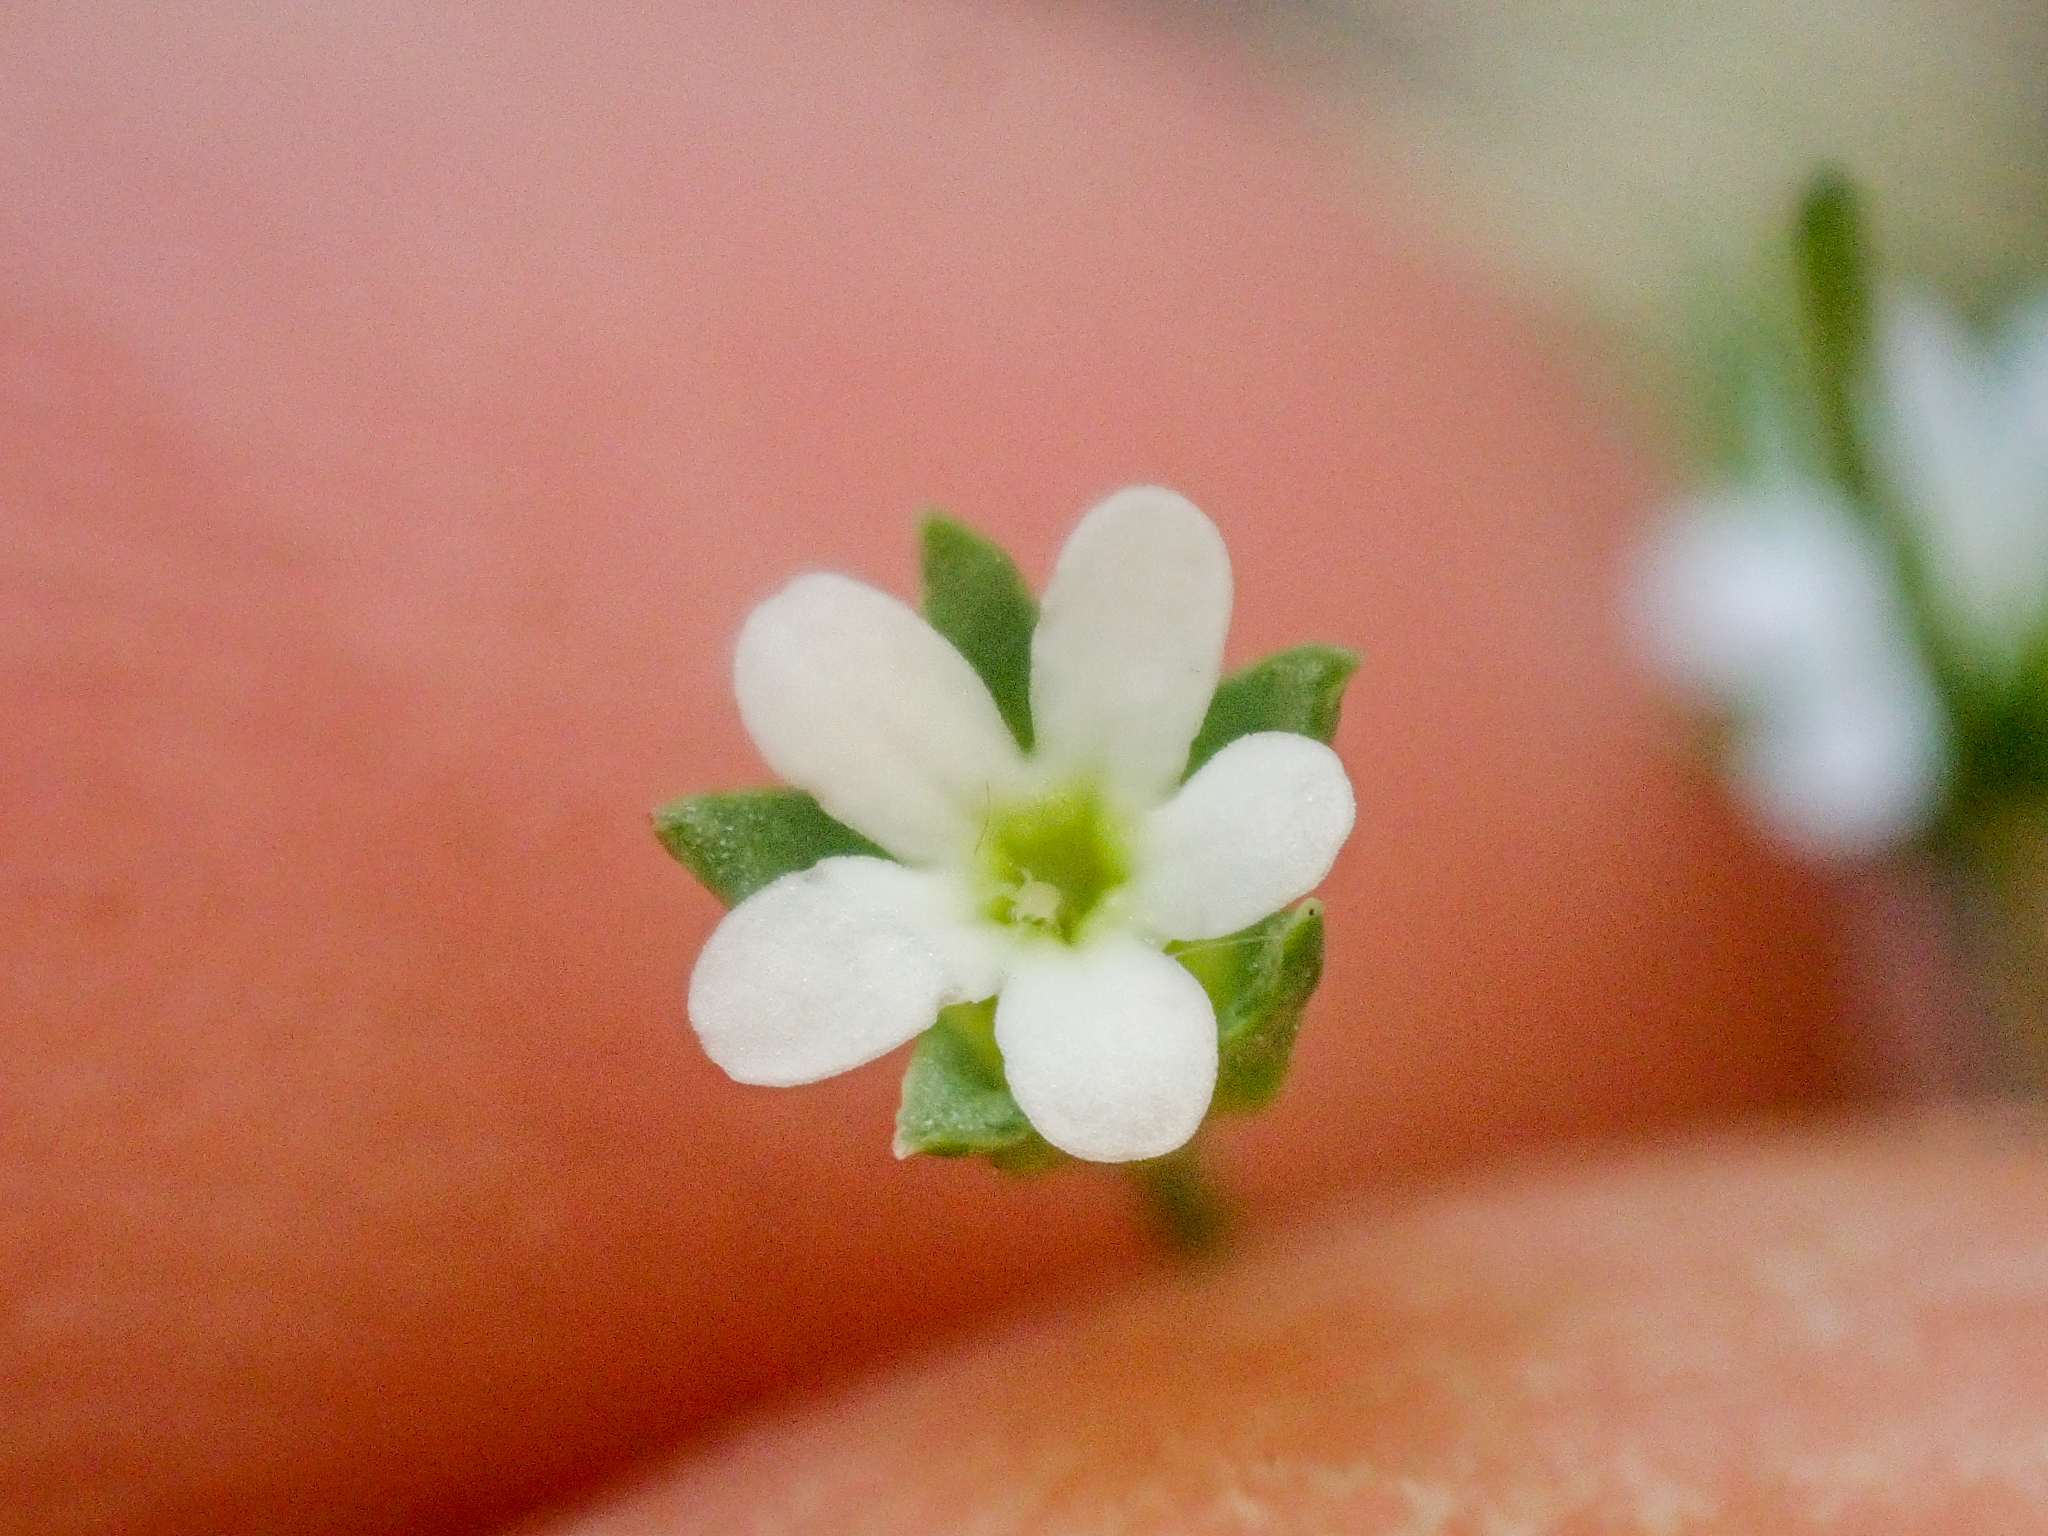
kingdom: Plantae
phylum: Tracheophyta
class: Magnoliopsida
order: Ericales
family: Primulaceae
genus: Androsace
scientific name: Androsace septentrionalis
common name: Hairy northern fairy-candelabra
